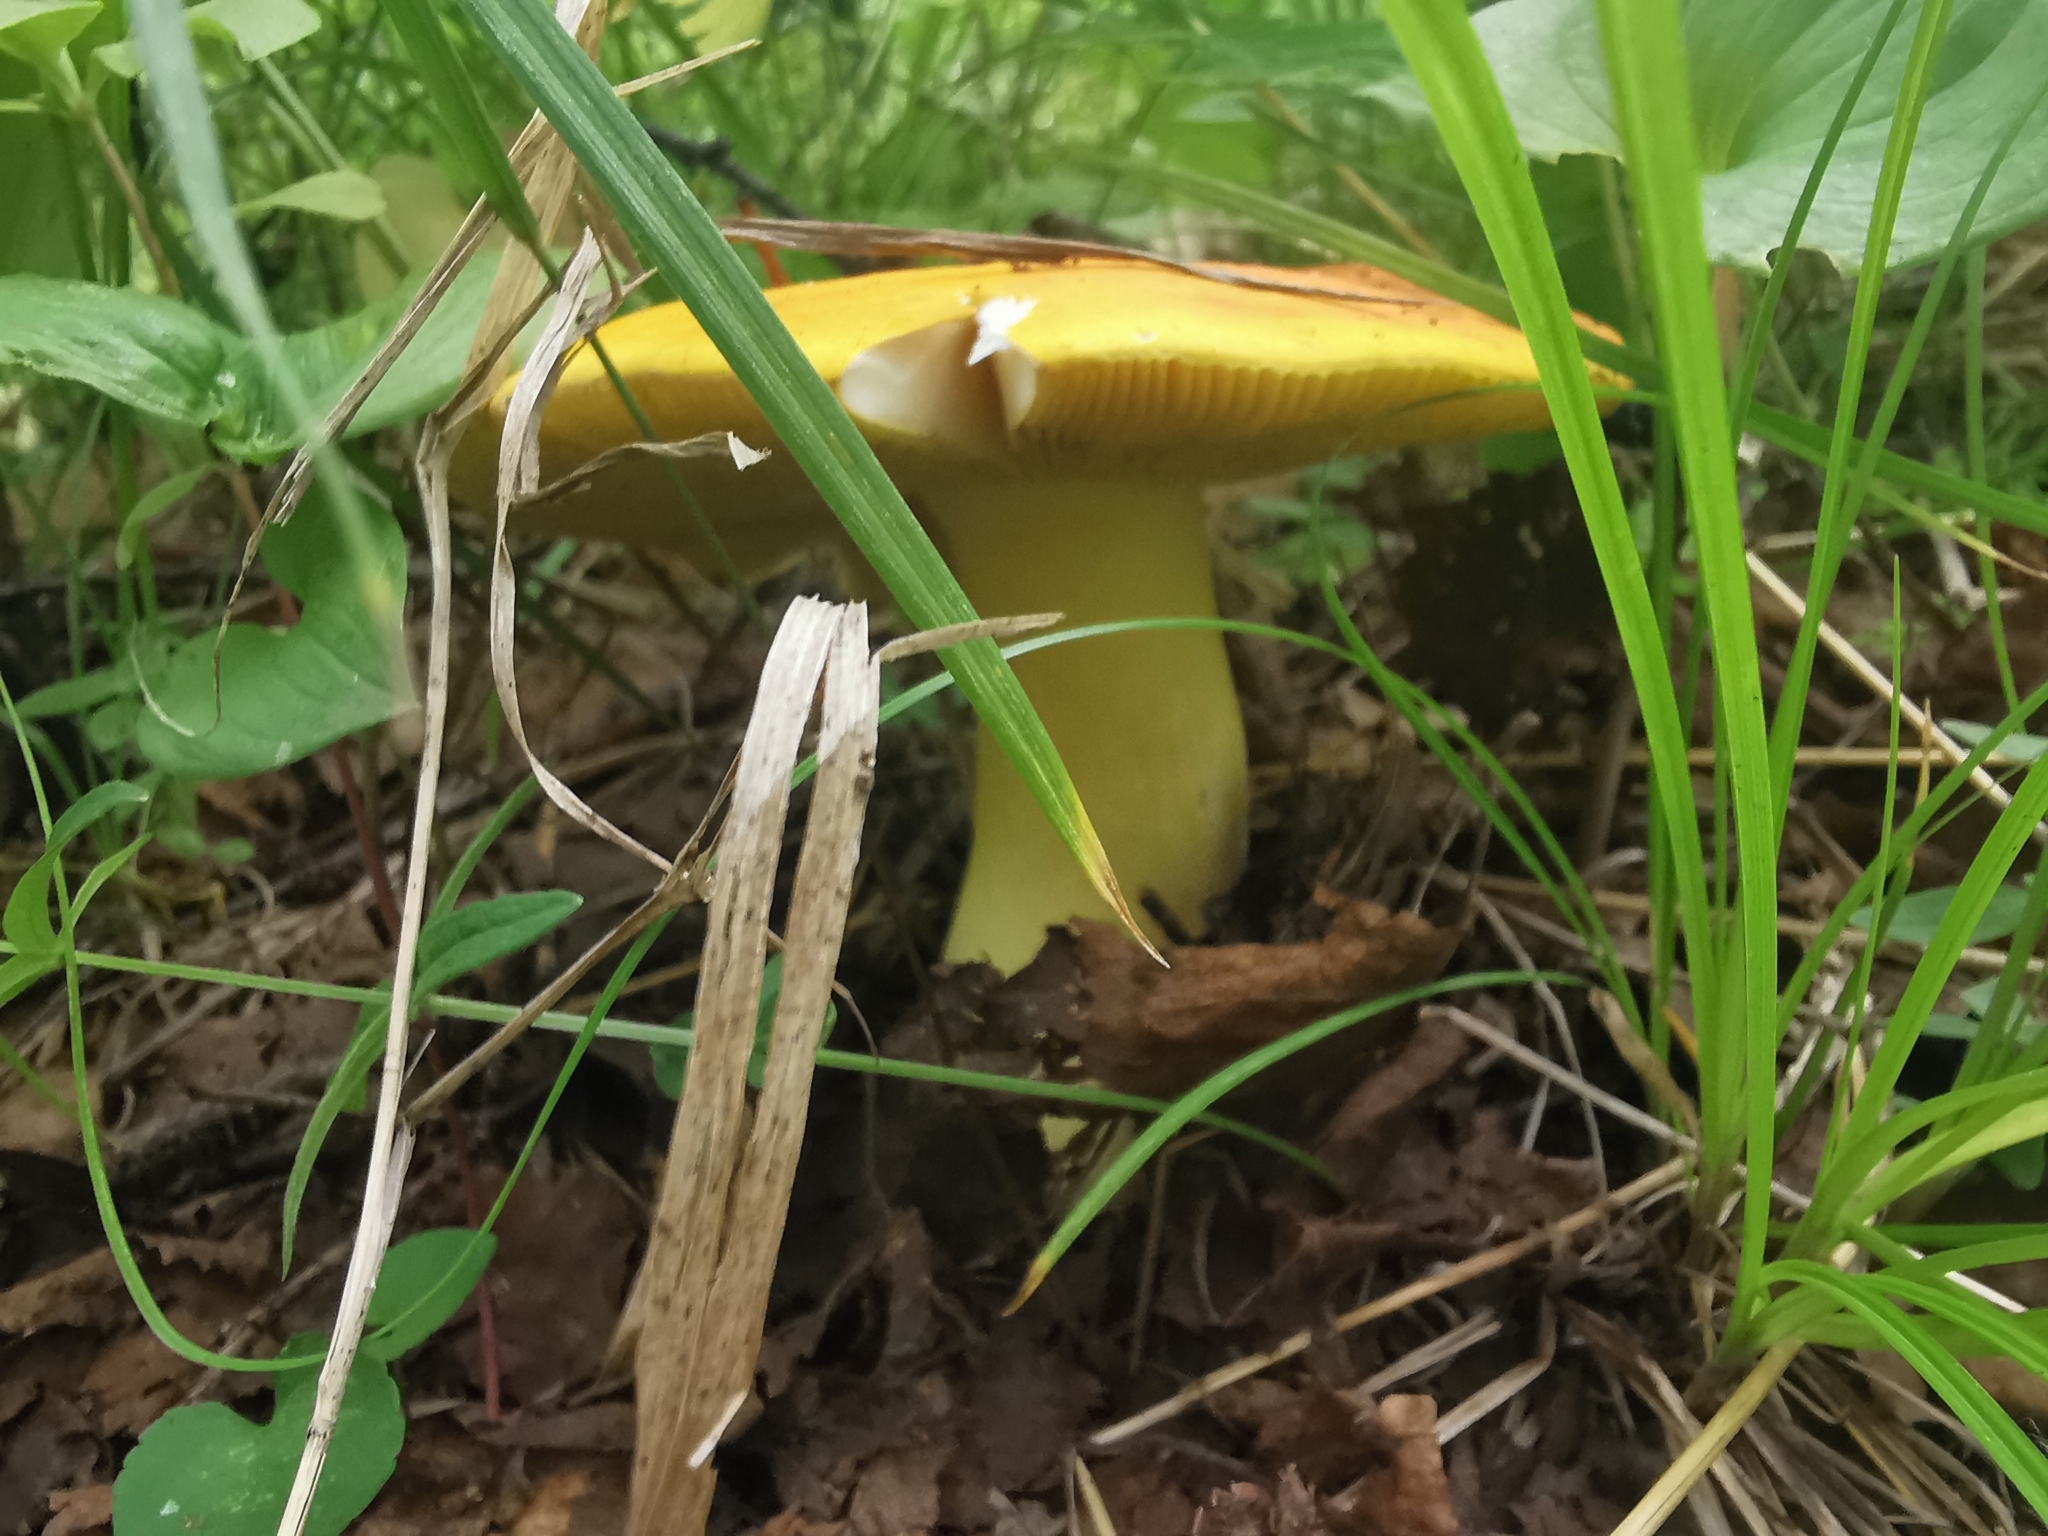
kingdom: Fungi
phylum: Basidiomycota
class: Agaricomycetes
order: Russulales
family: Russulaceae
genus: Russula
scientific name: Russula aurea
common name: Gilded brittlegill
